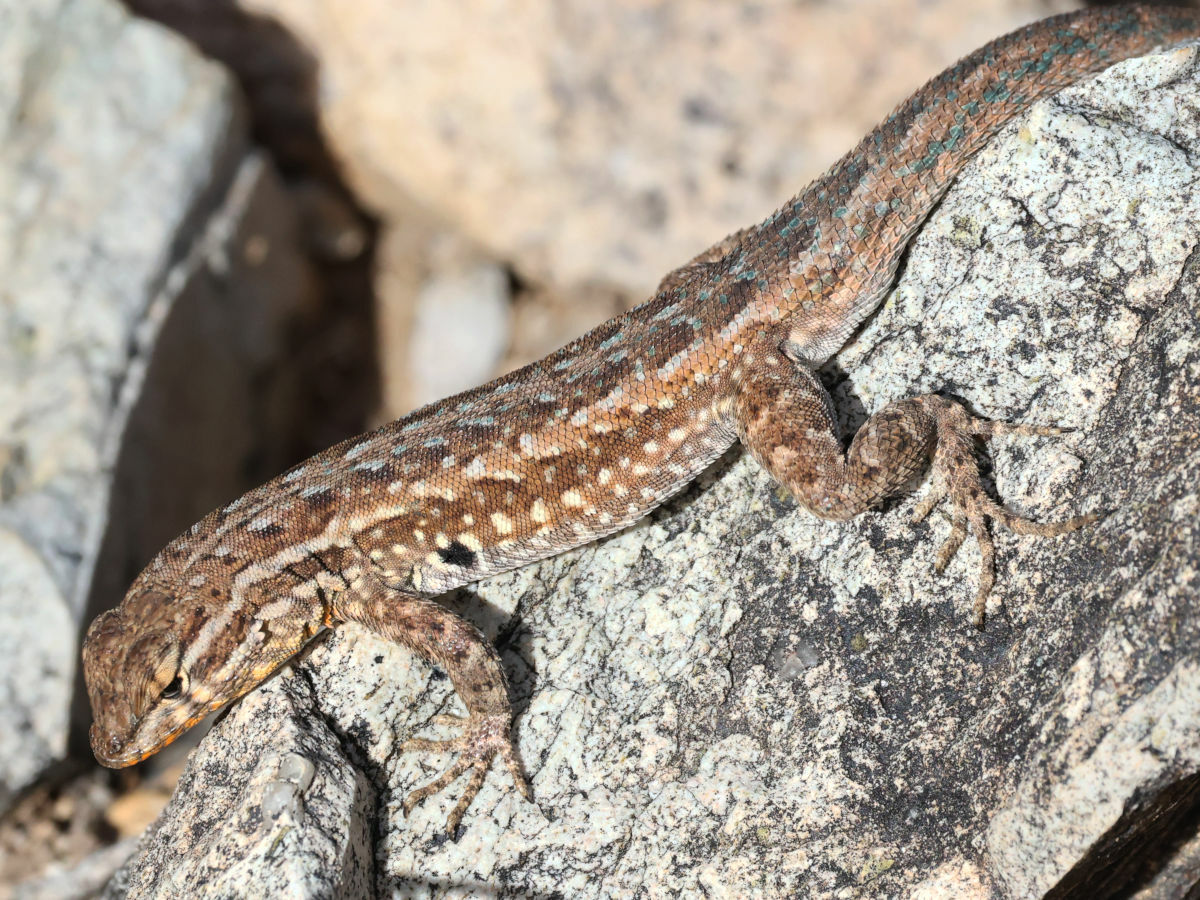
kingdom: Animalia
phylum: Chordata
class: Squamata
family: Phrynosomatidae
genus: Uta
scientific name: Uta stansburiana
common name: Side-blotched lizard
